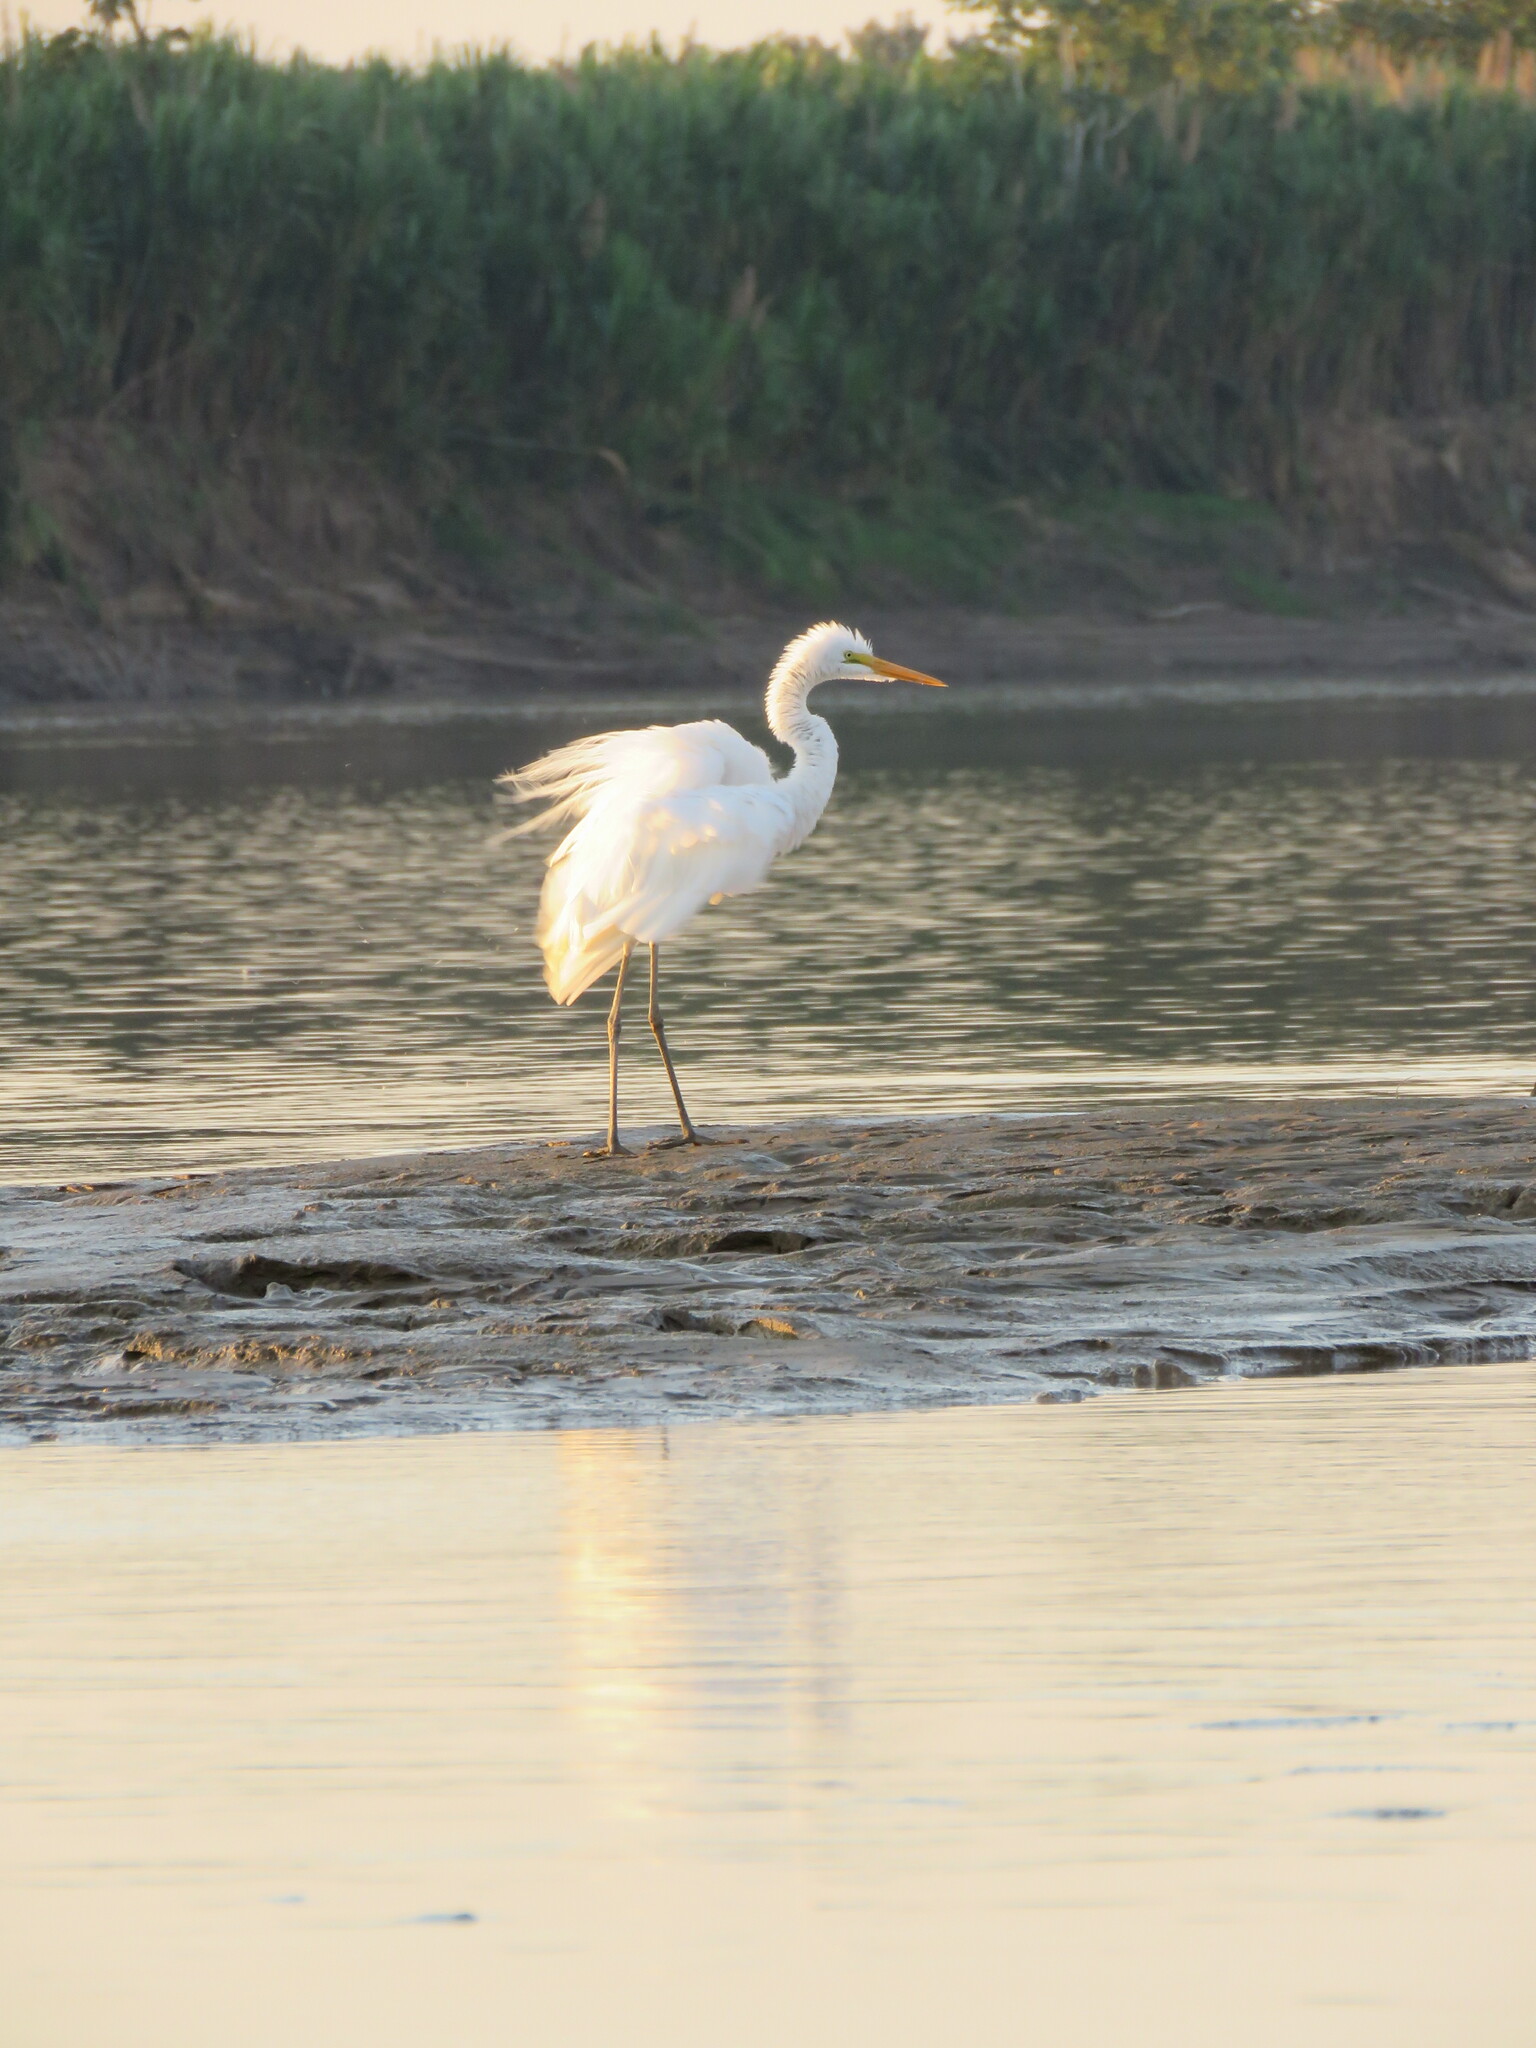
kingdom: Animalia
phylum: Chordata
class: Aves
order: Pelecaniformes
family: Ardeidae
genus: Ardea
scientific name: Ardea alba
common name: Great egret
